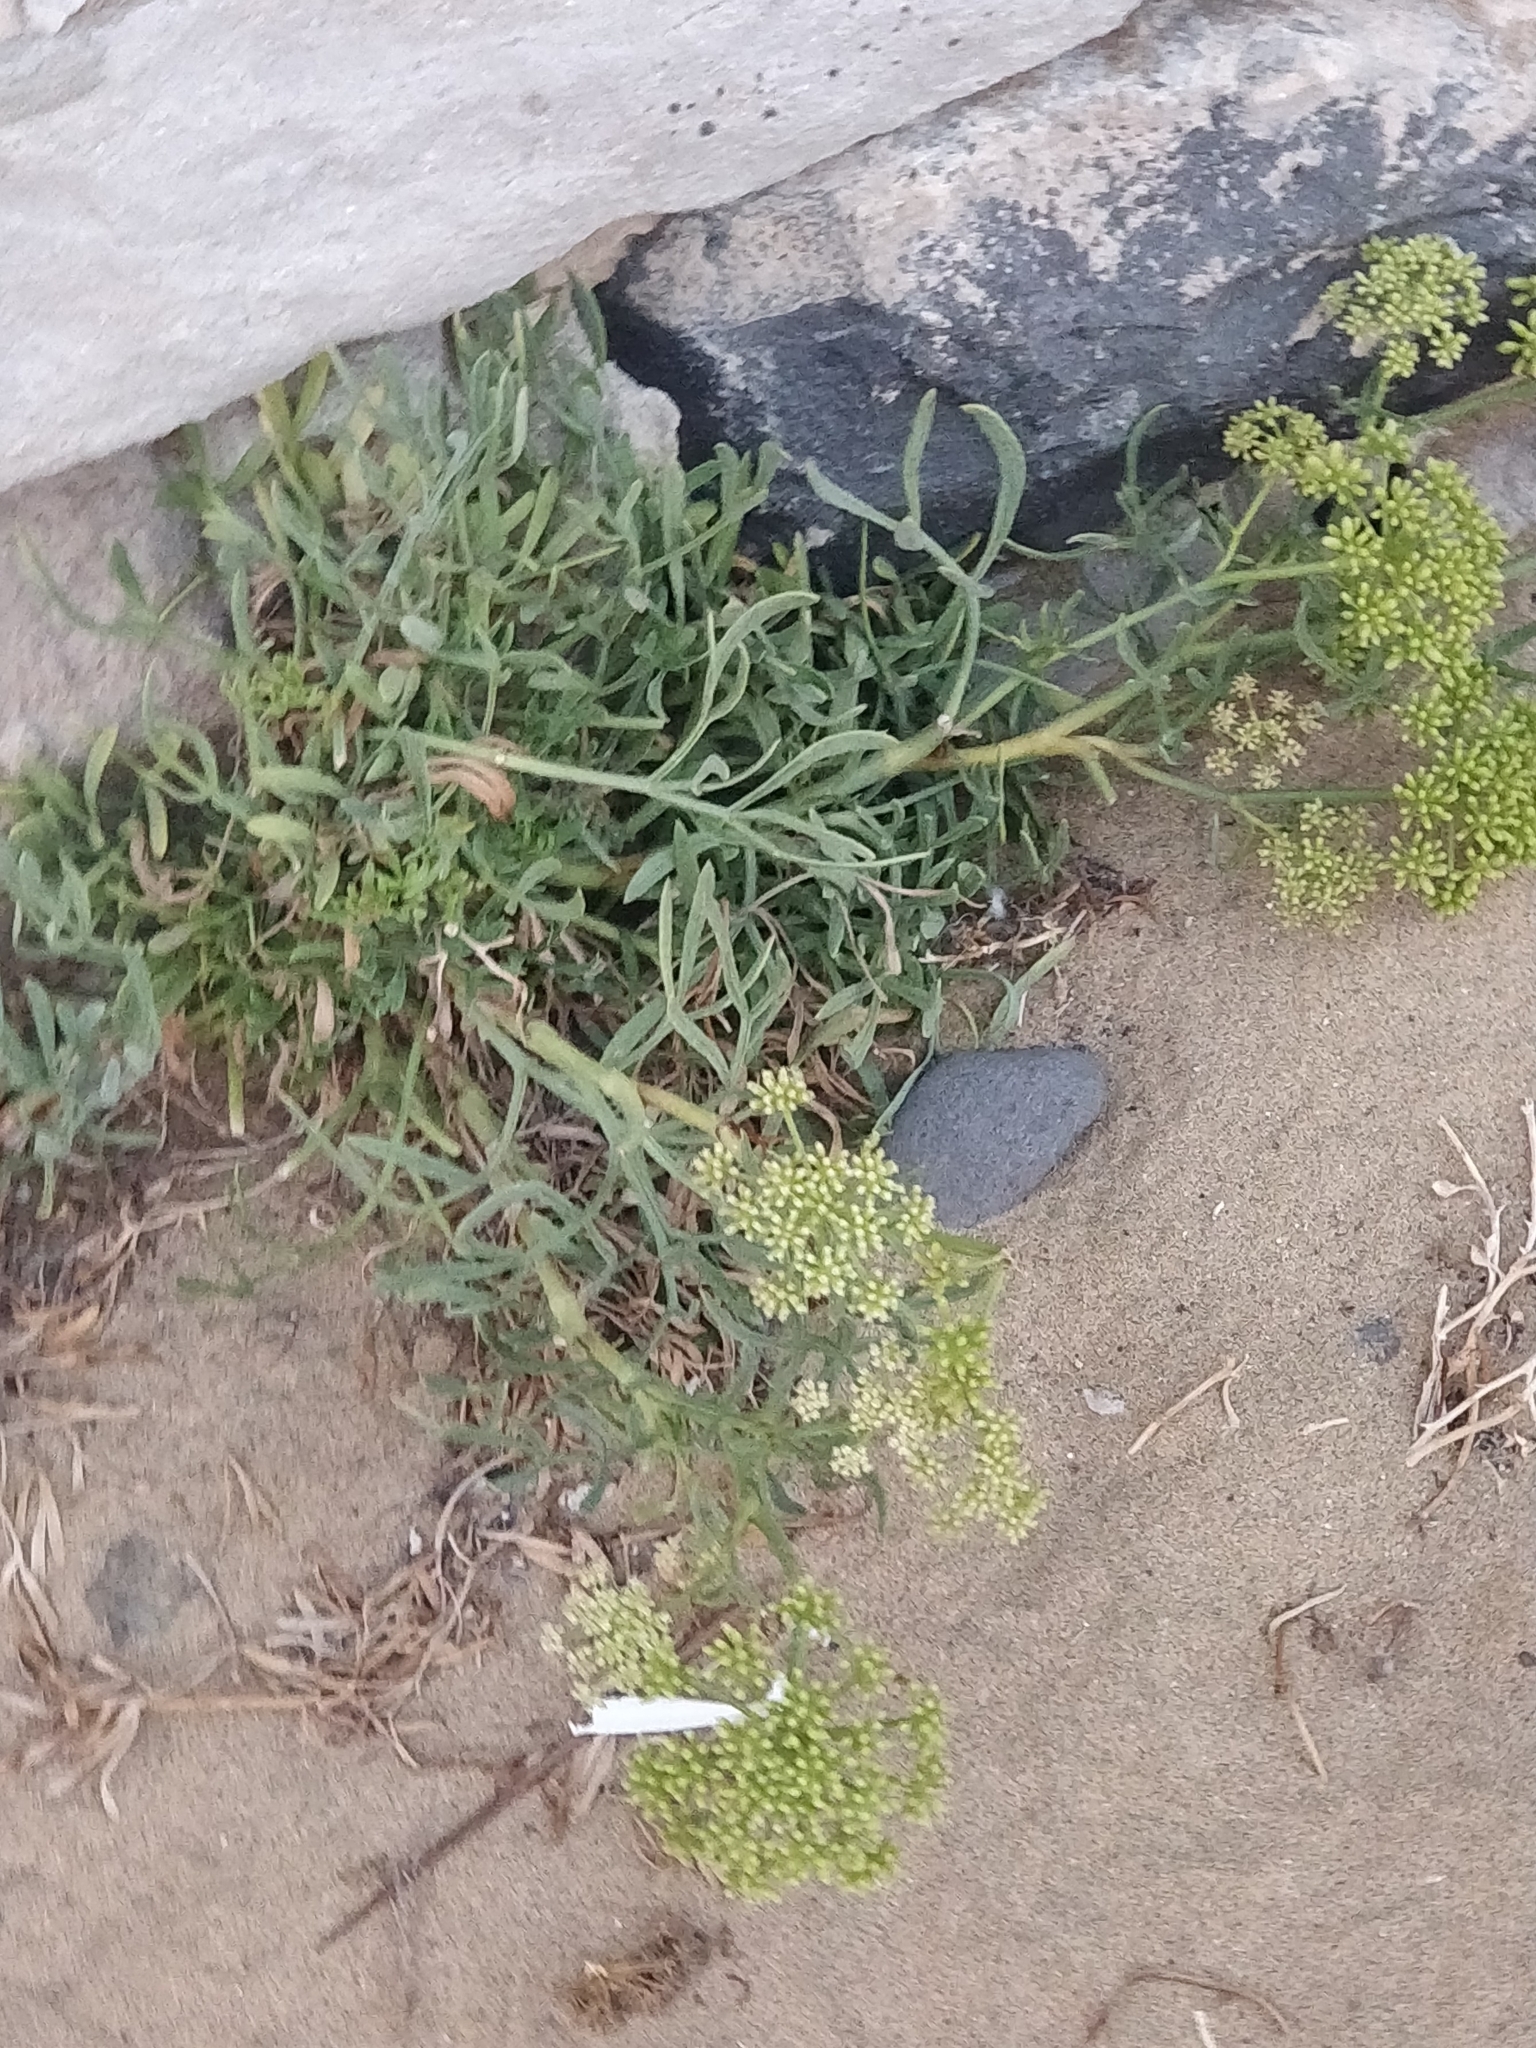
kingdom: Plantae
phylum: Tracheophyta
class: Magnoliopsida
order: Apiales
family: Apiaceae
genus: Crithmum
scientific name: Crithmum maritimum
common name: Rock samphire
